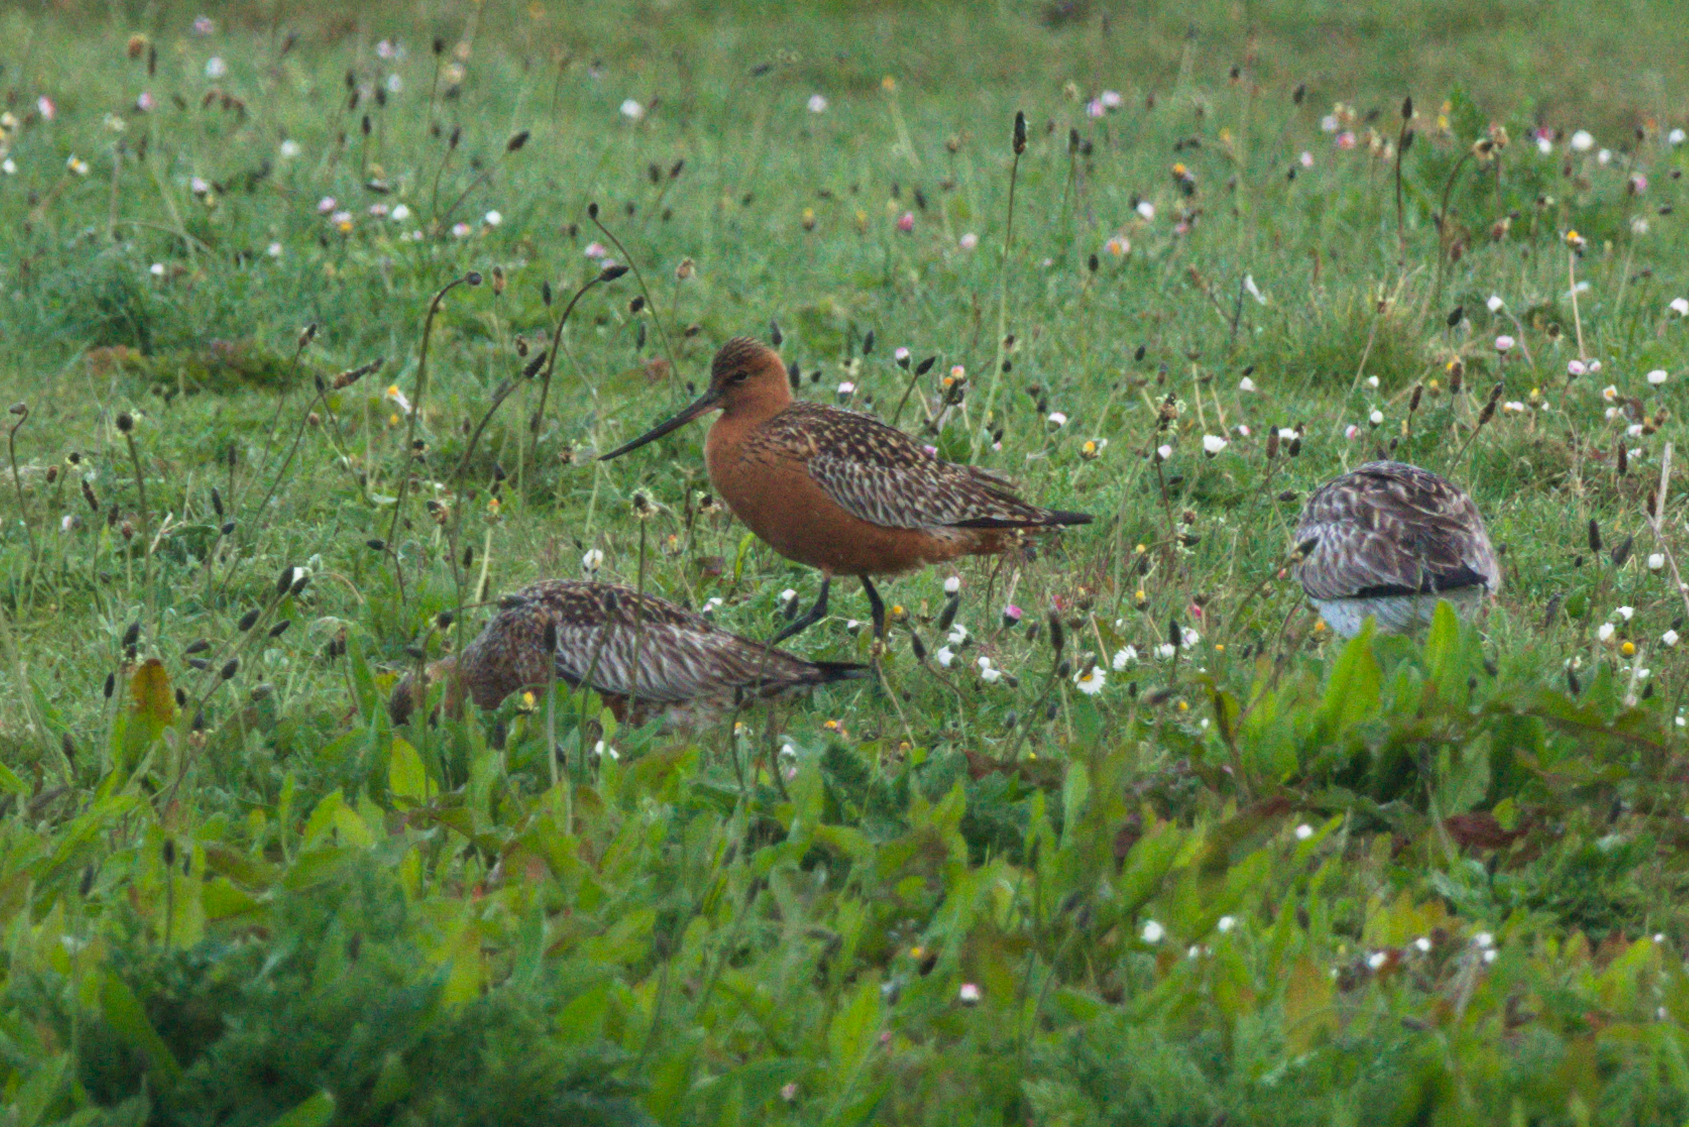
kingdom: Animalia
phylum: Chordata
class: Aves
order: Charadriiformes
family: Scolopacidae
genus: Limosa
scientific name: Limosa lapponica
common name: Bar-tailed godwit
